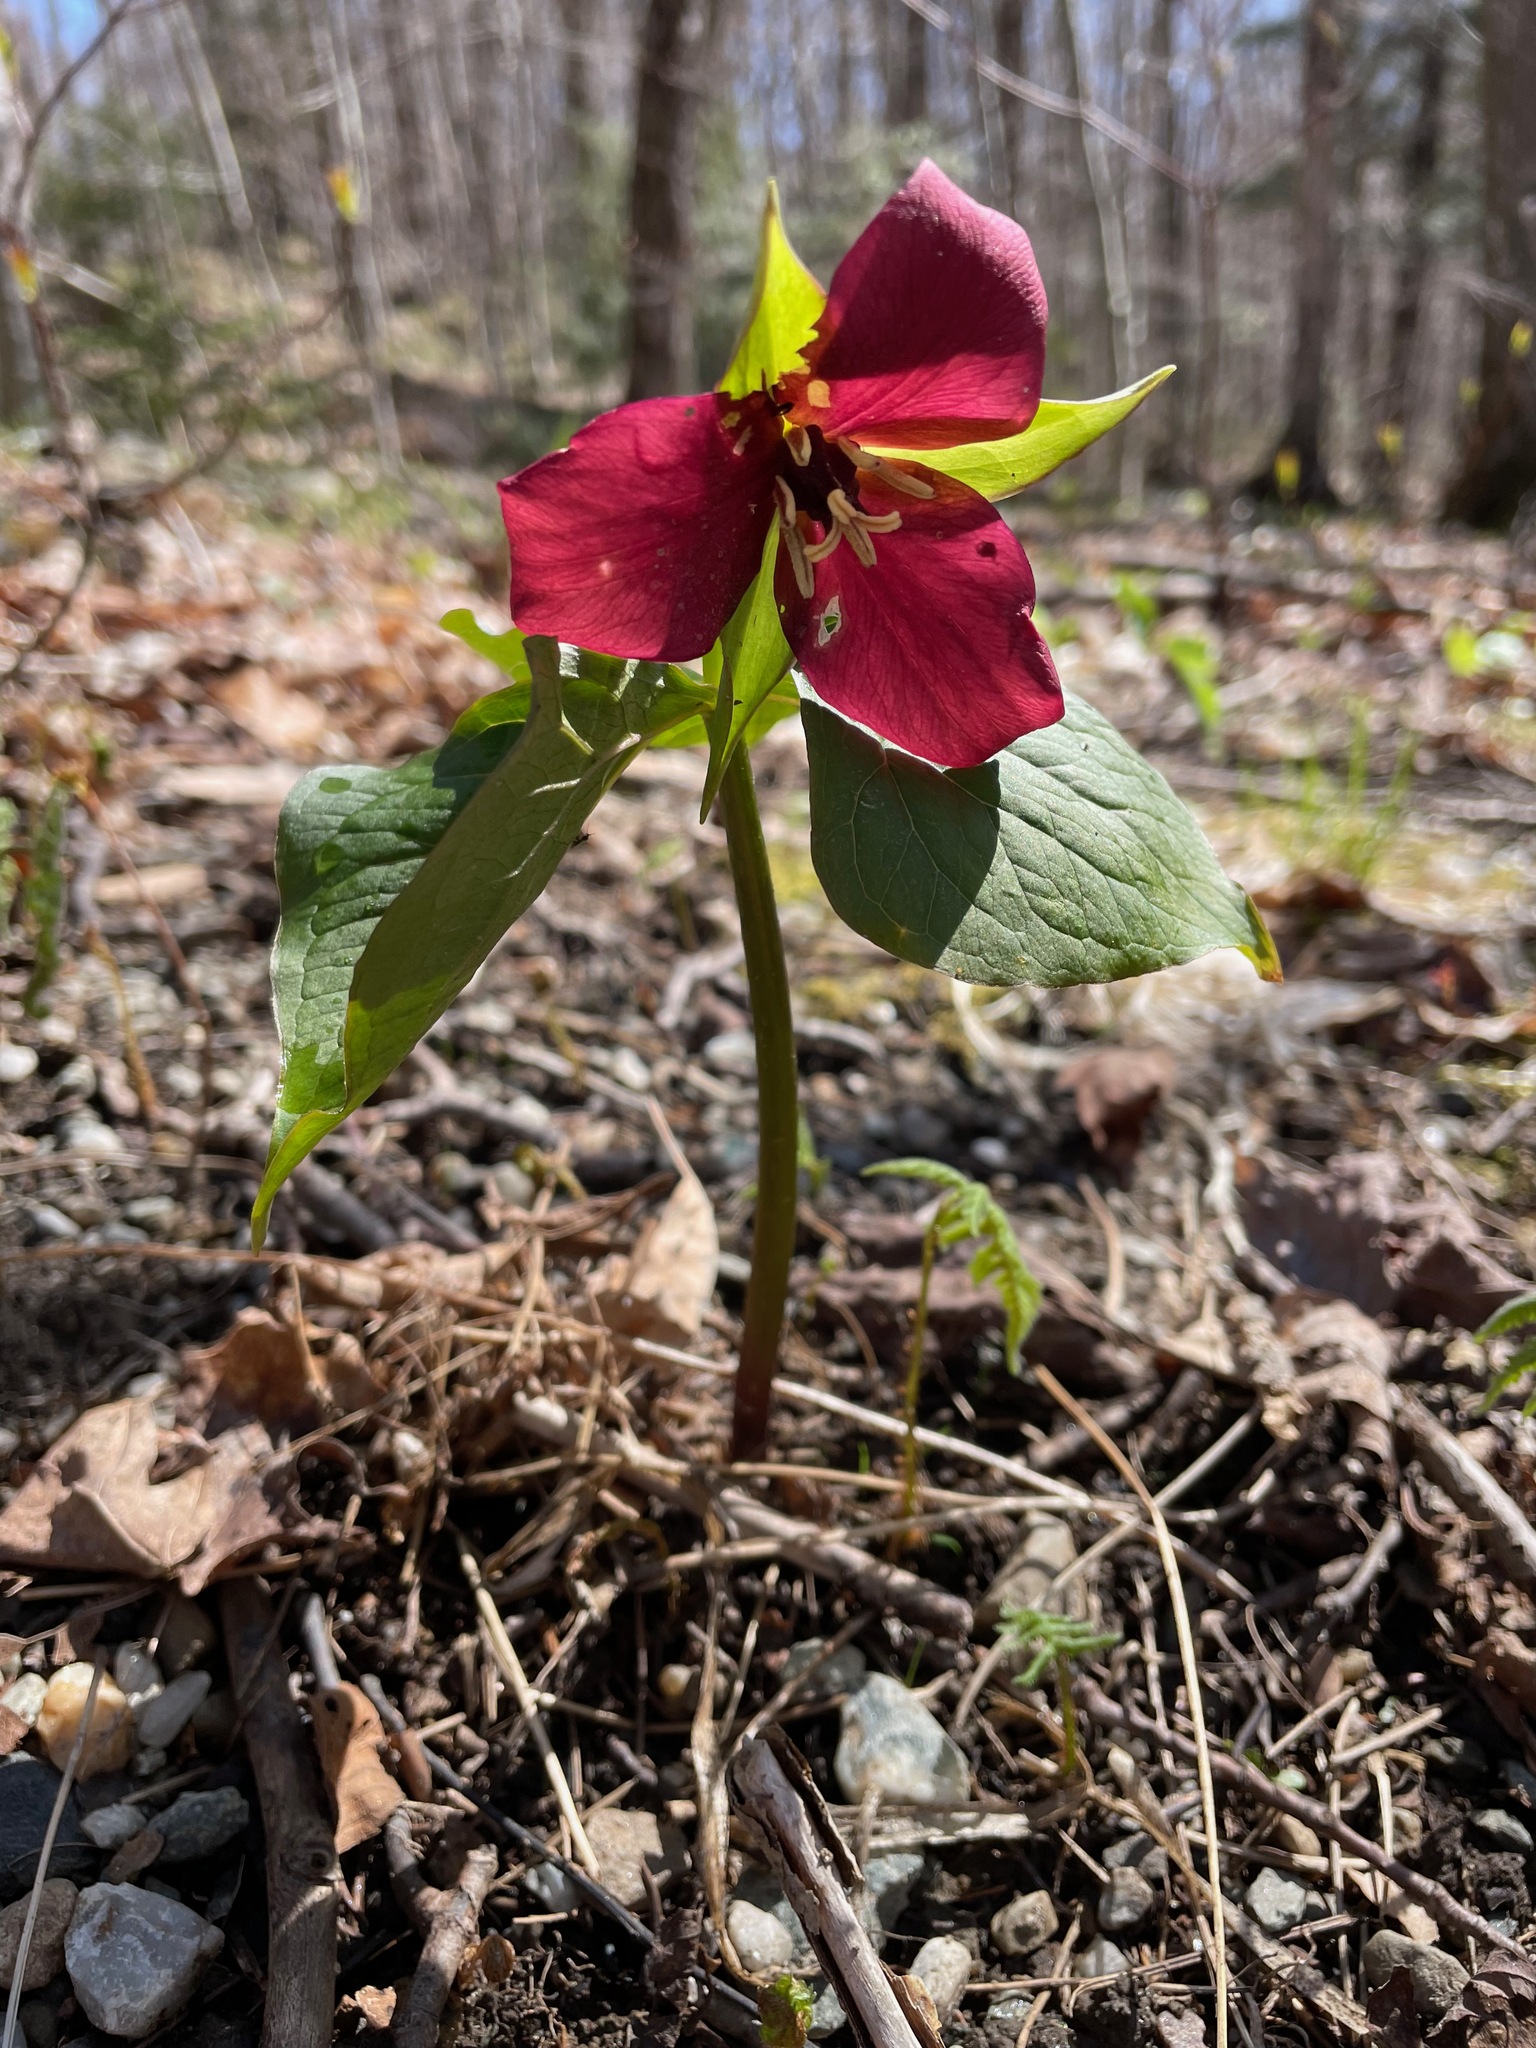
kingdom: Plantae
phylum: Tracheophyta
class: Liliopsida
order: Liliales
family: Melanthiaceae
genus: Trillium
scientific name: Trillium erectum
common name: Purple trillium
